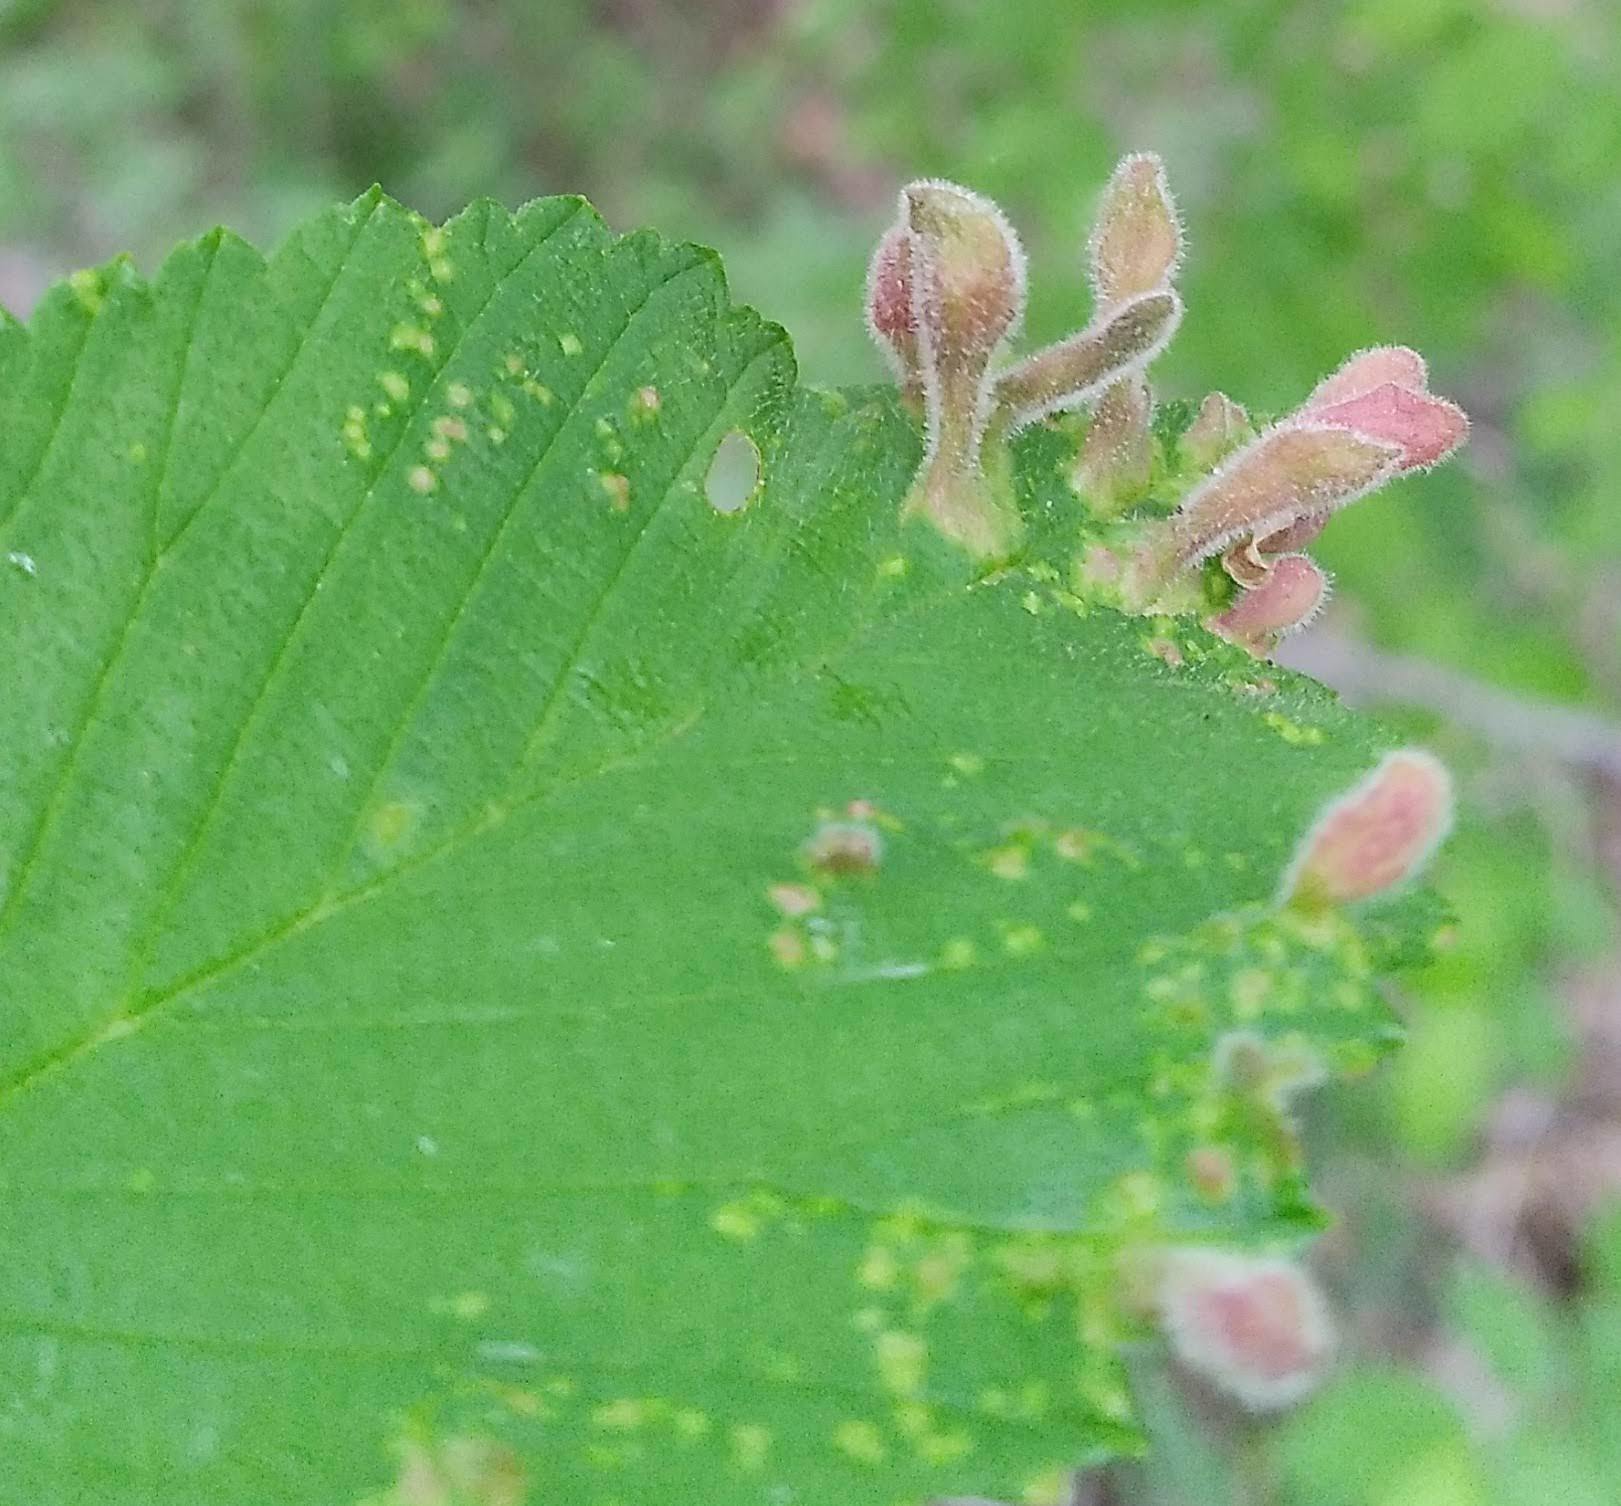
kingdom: Animalia
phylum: Arthropoda
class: Insecta
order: Hemiptera
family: Aphididae
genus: Tetraneura
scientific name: Tetraneura nigriabdominalis
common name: Aphid
